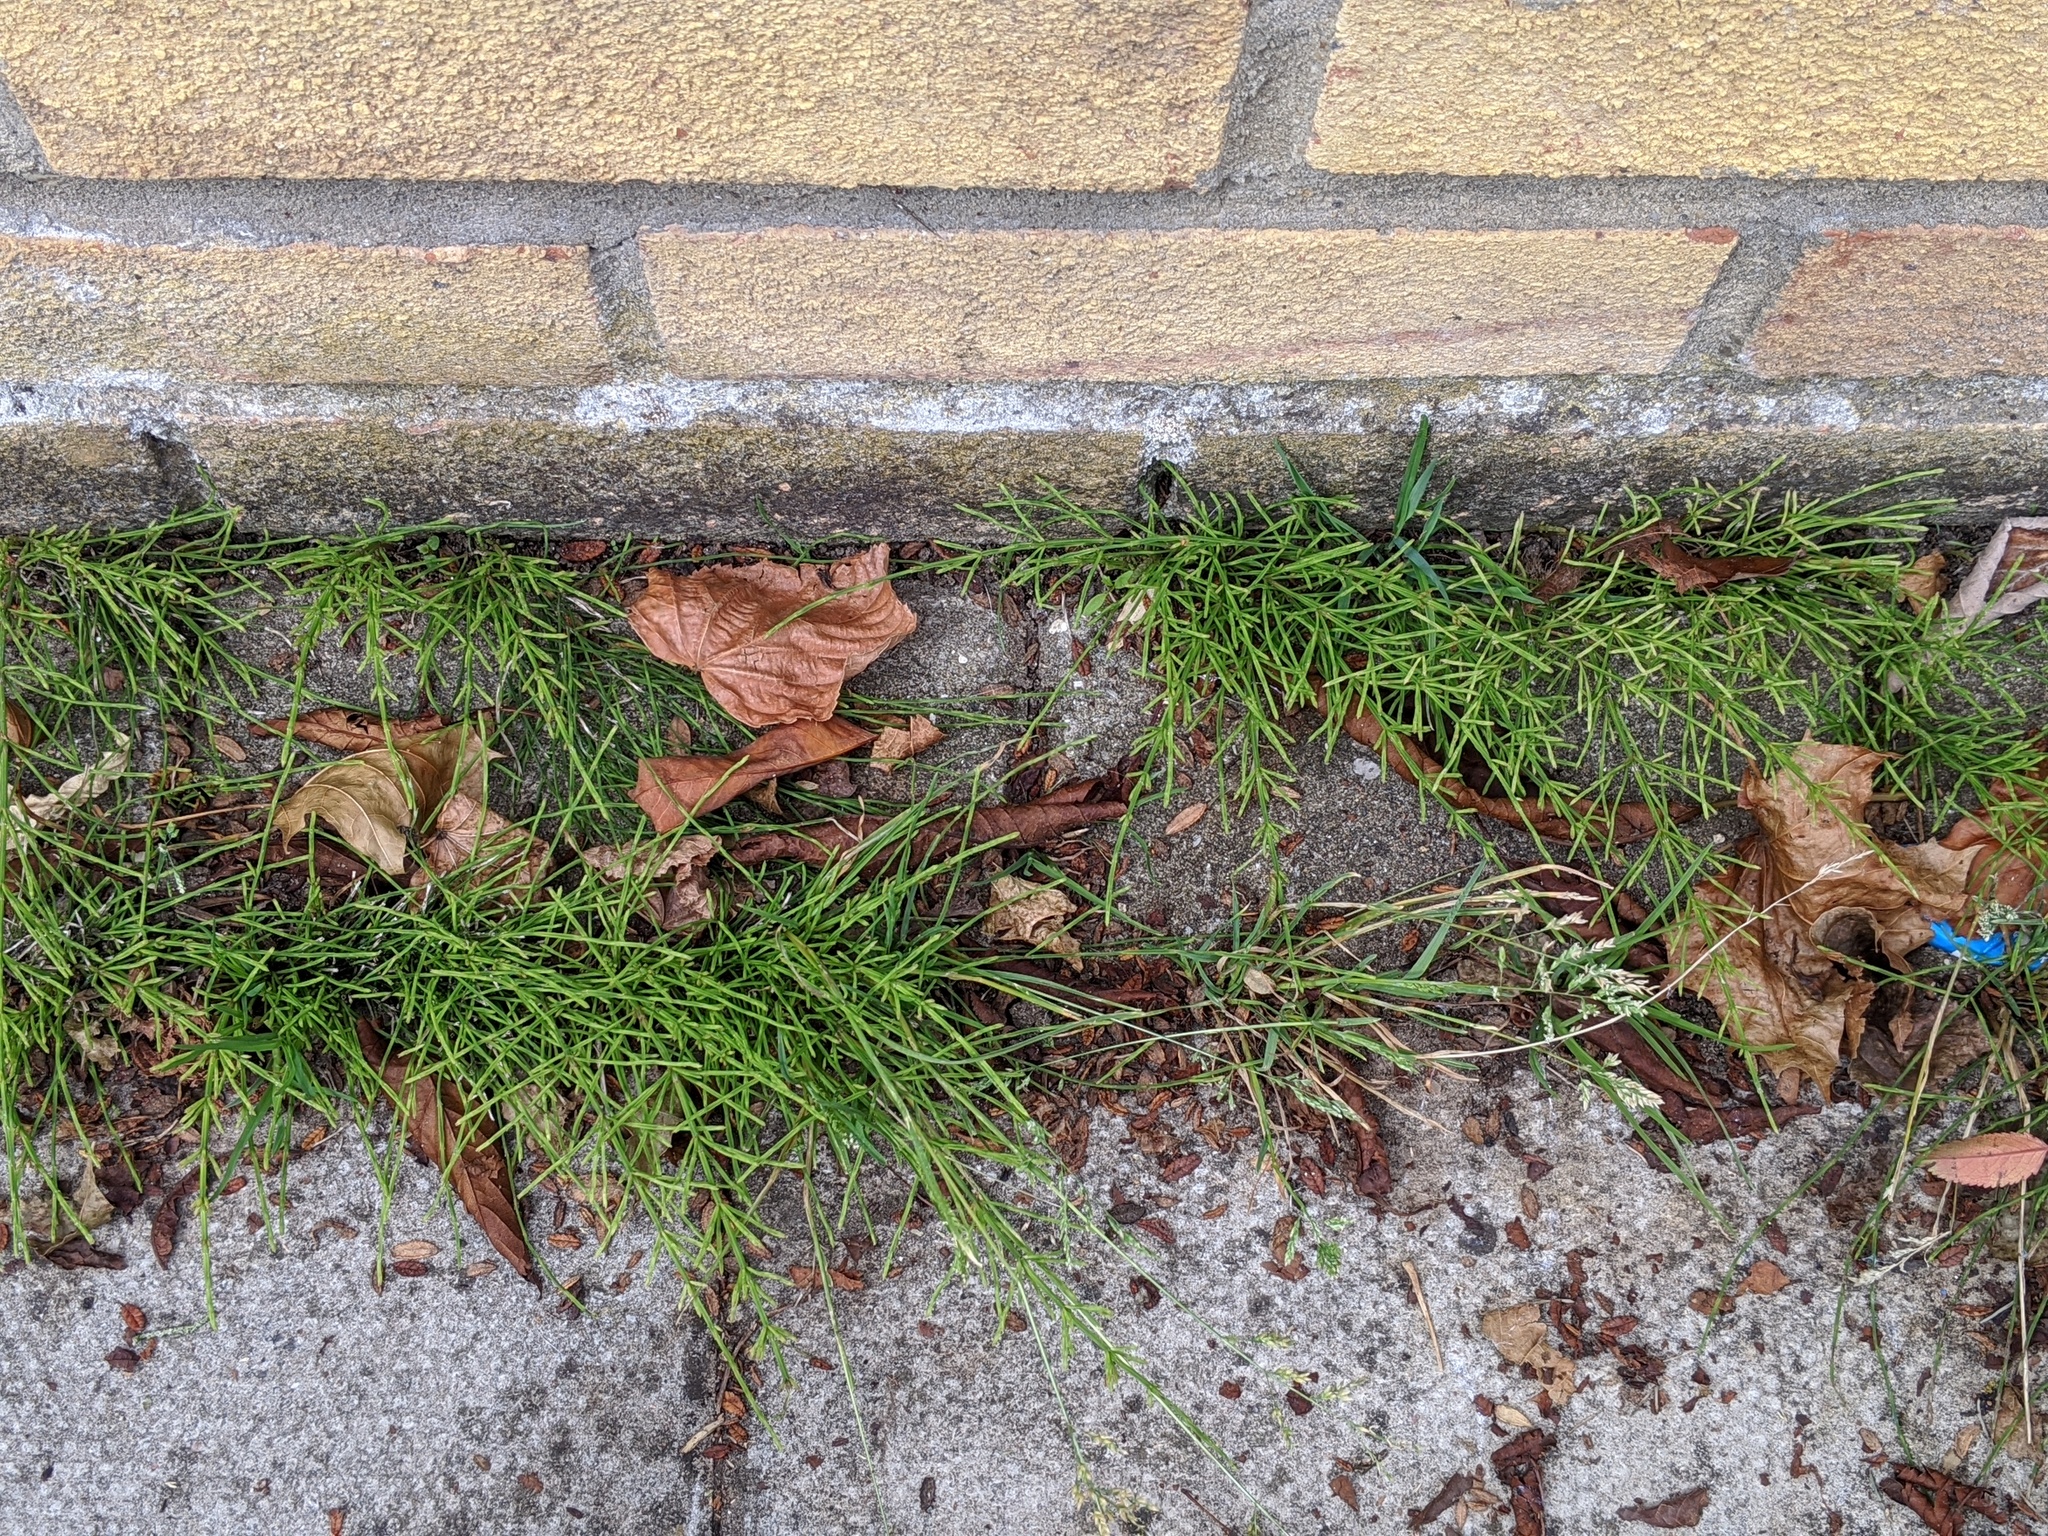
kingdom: Plantae
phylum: Tracheophyta
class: Polypodiopsida
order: Equisetales
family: Equisetaceae
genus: Equisetum
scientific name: Equisetum arvense
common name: Field horsetail
